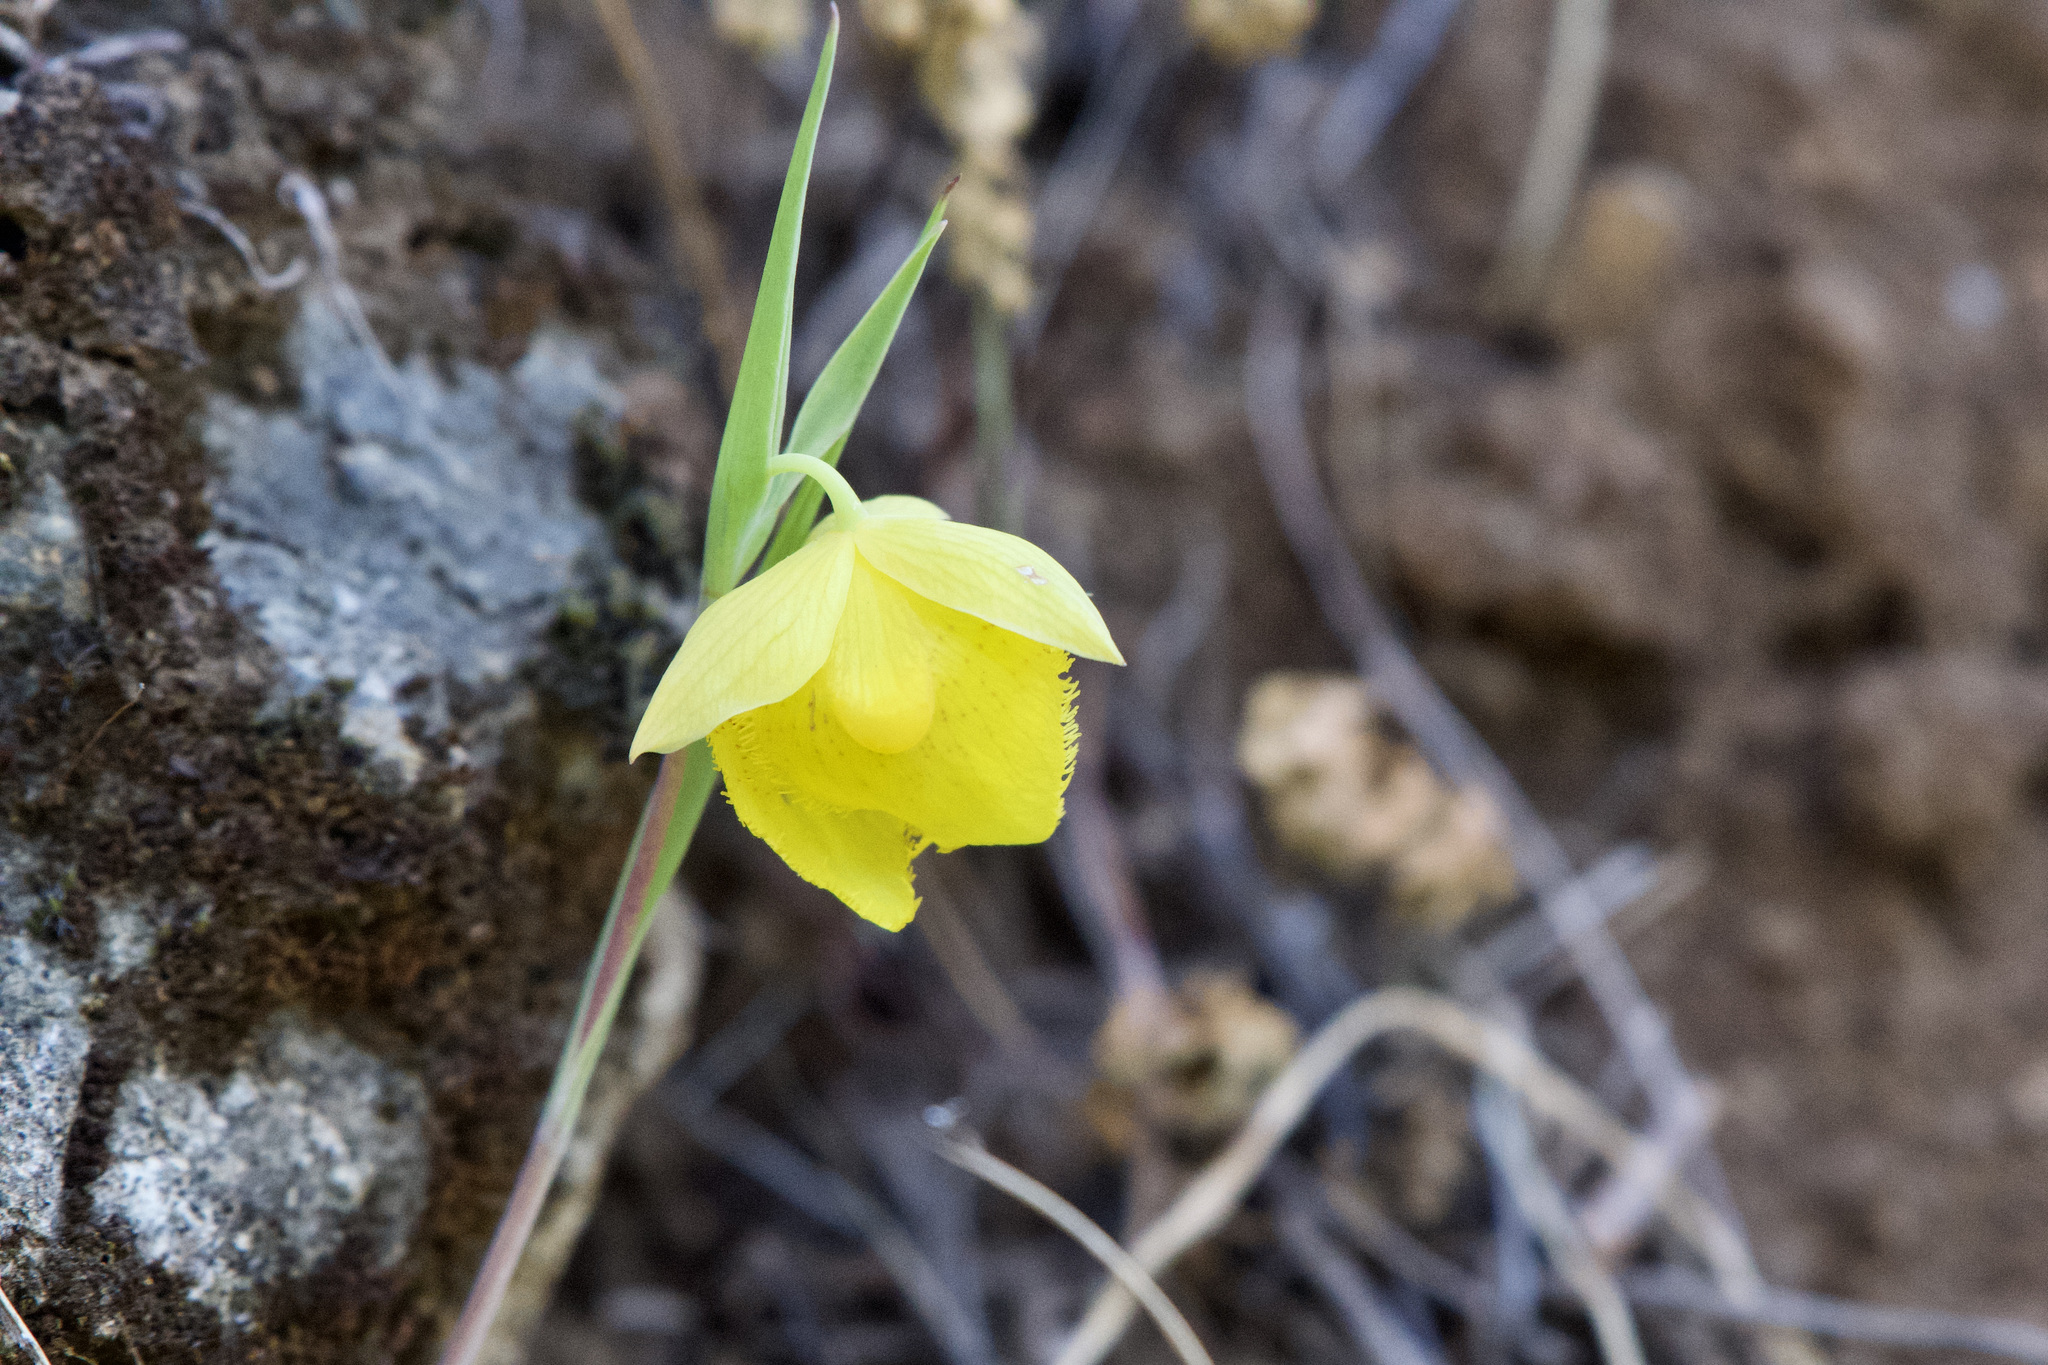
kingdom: Plantae
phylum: Tracheophyta
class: Liliopsida
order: Liliales
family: Liliaceae
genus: Calochortus
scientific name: Calochortus pulchellus
